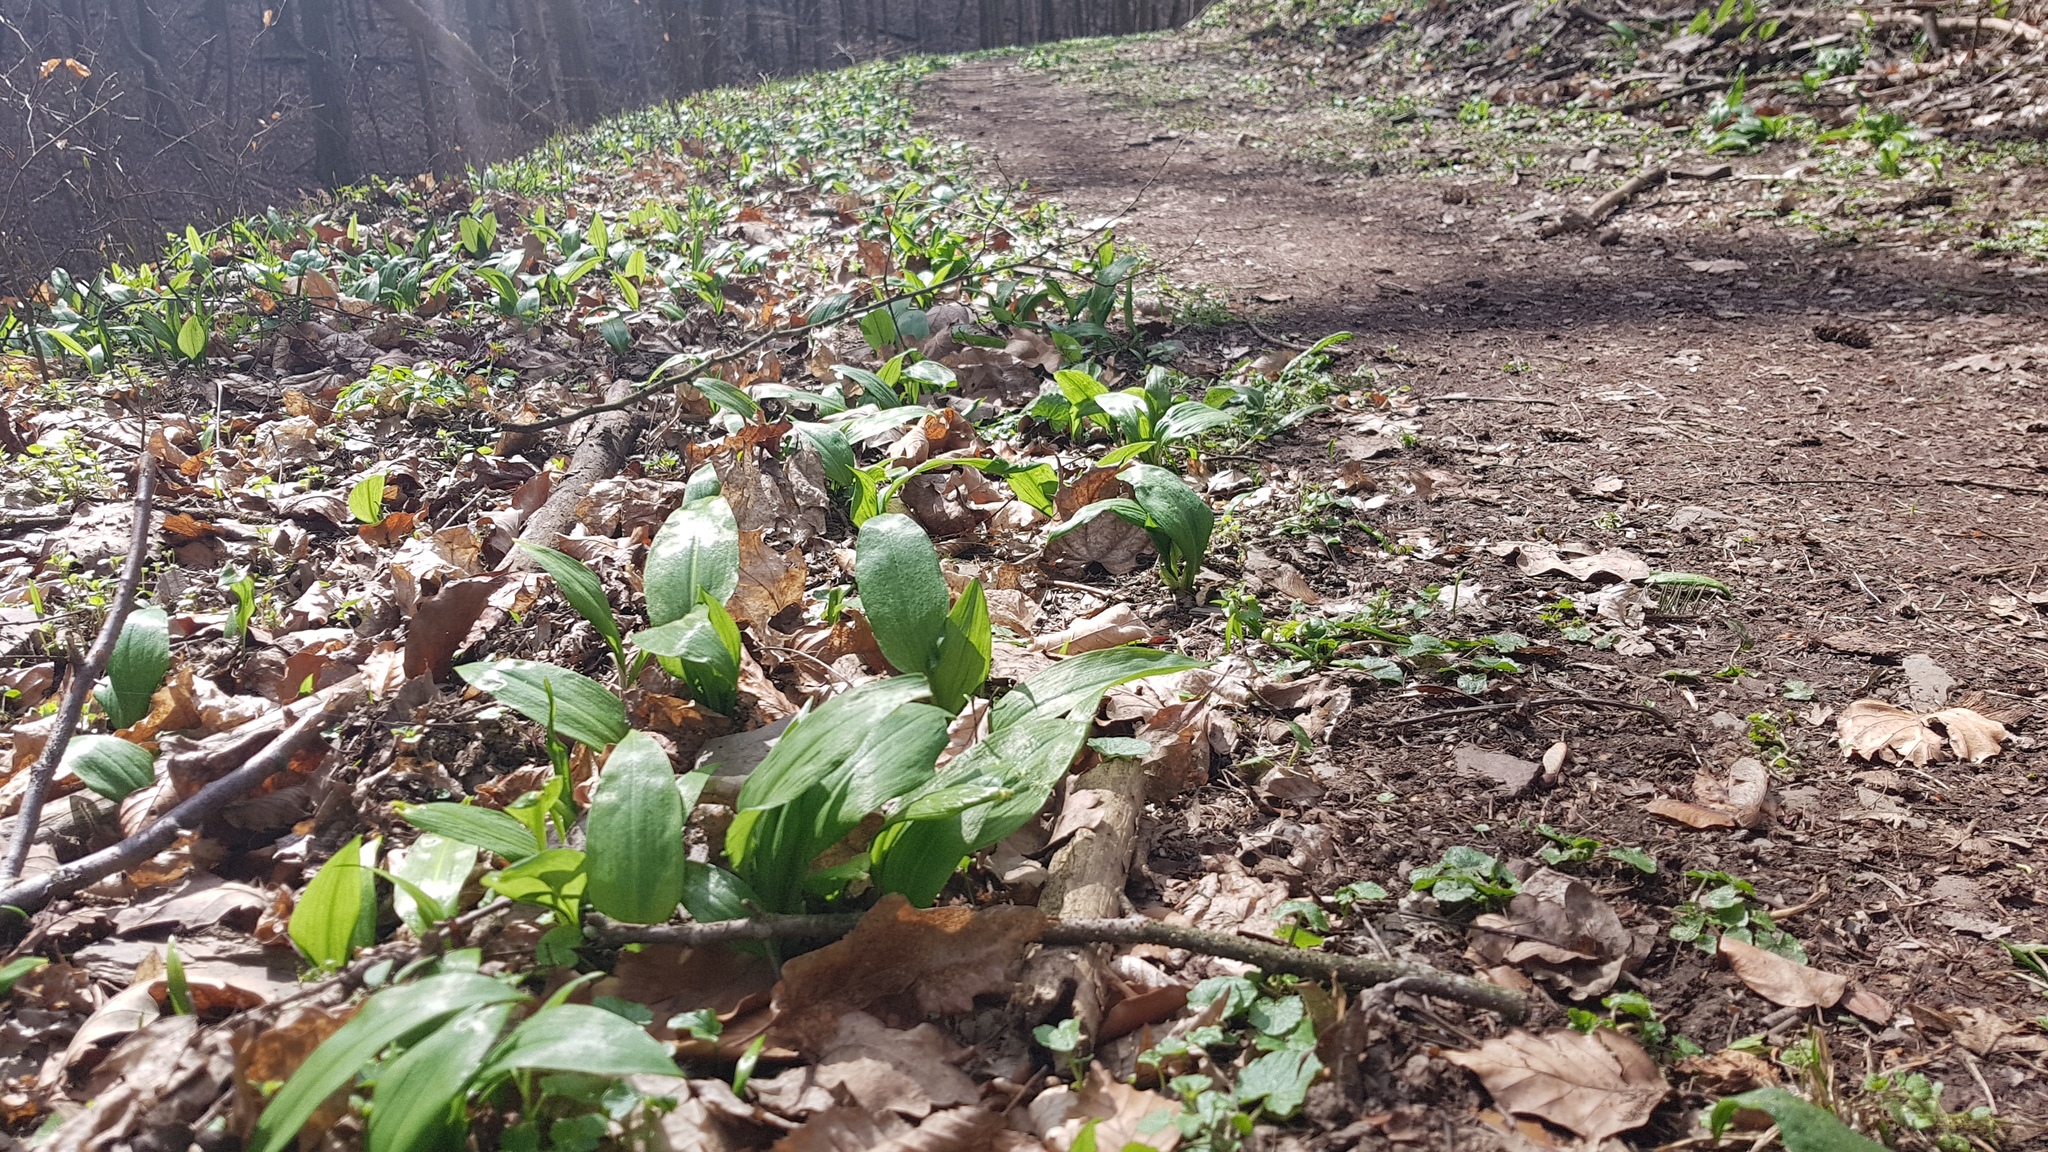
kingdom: Plantae
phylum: Tracheophyta
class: Liliopsida
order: Asparagales
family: Amaryllidaceae
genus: Allium
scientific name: Allium ursinum
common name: Ramsons
